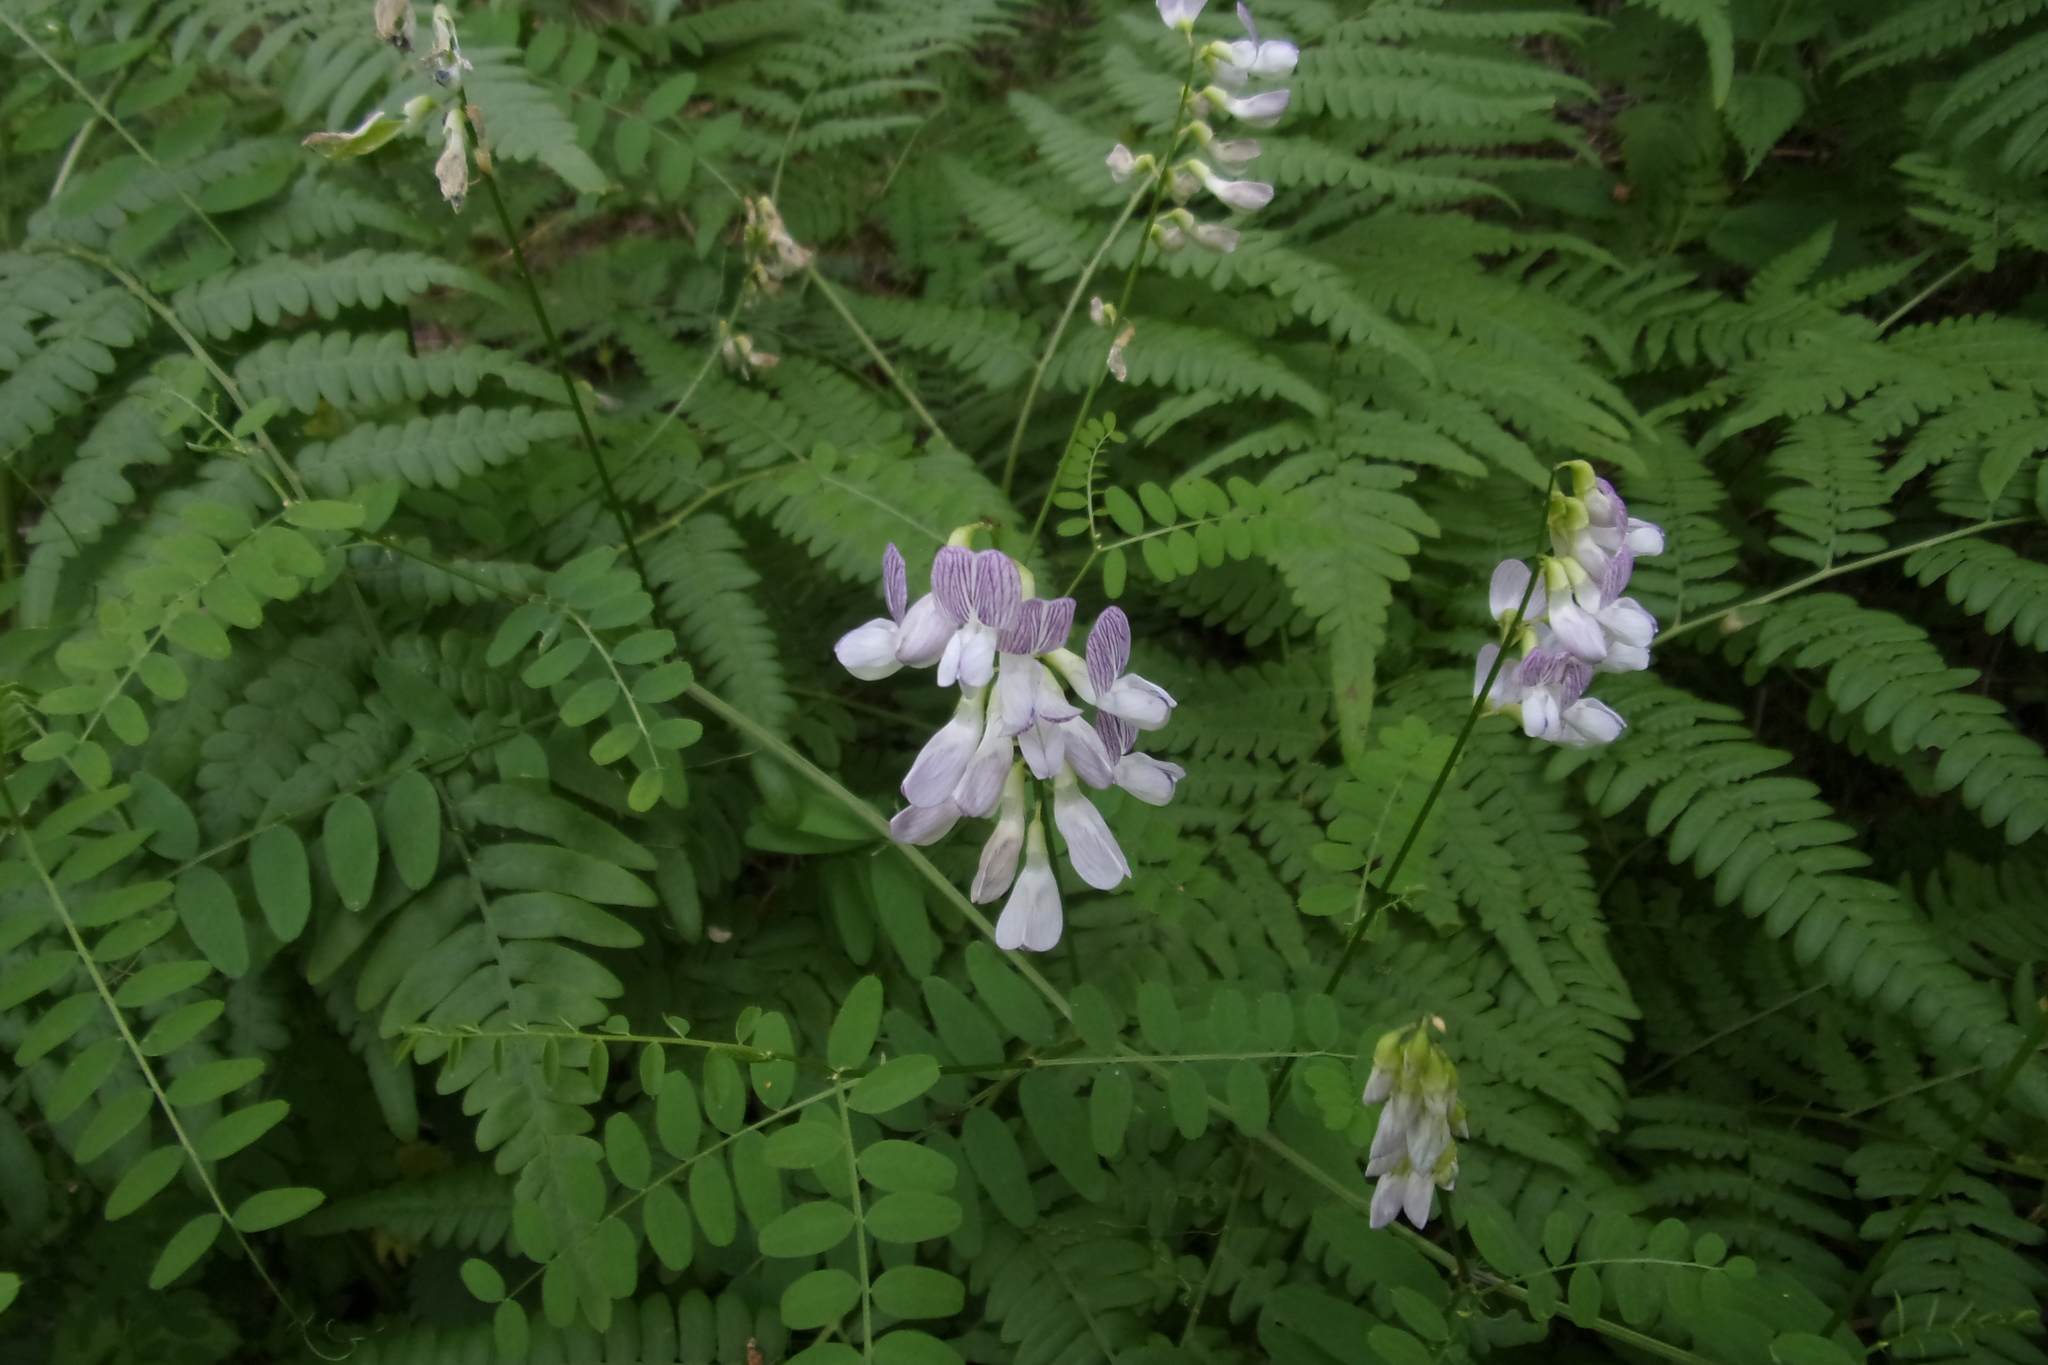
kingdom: Plantae
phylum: Tracheophyta
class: Magnoliopsida
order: Fabales
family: Fabaceae
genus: Vicia
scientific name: Vicia sylvatica
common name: Wood vetch
